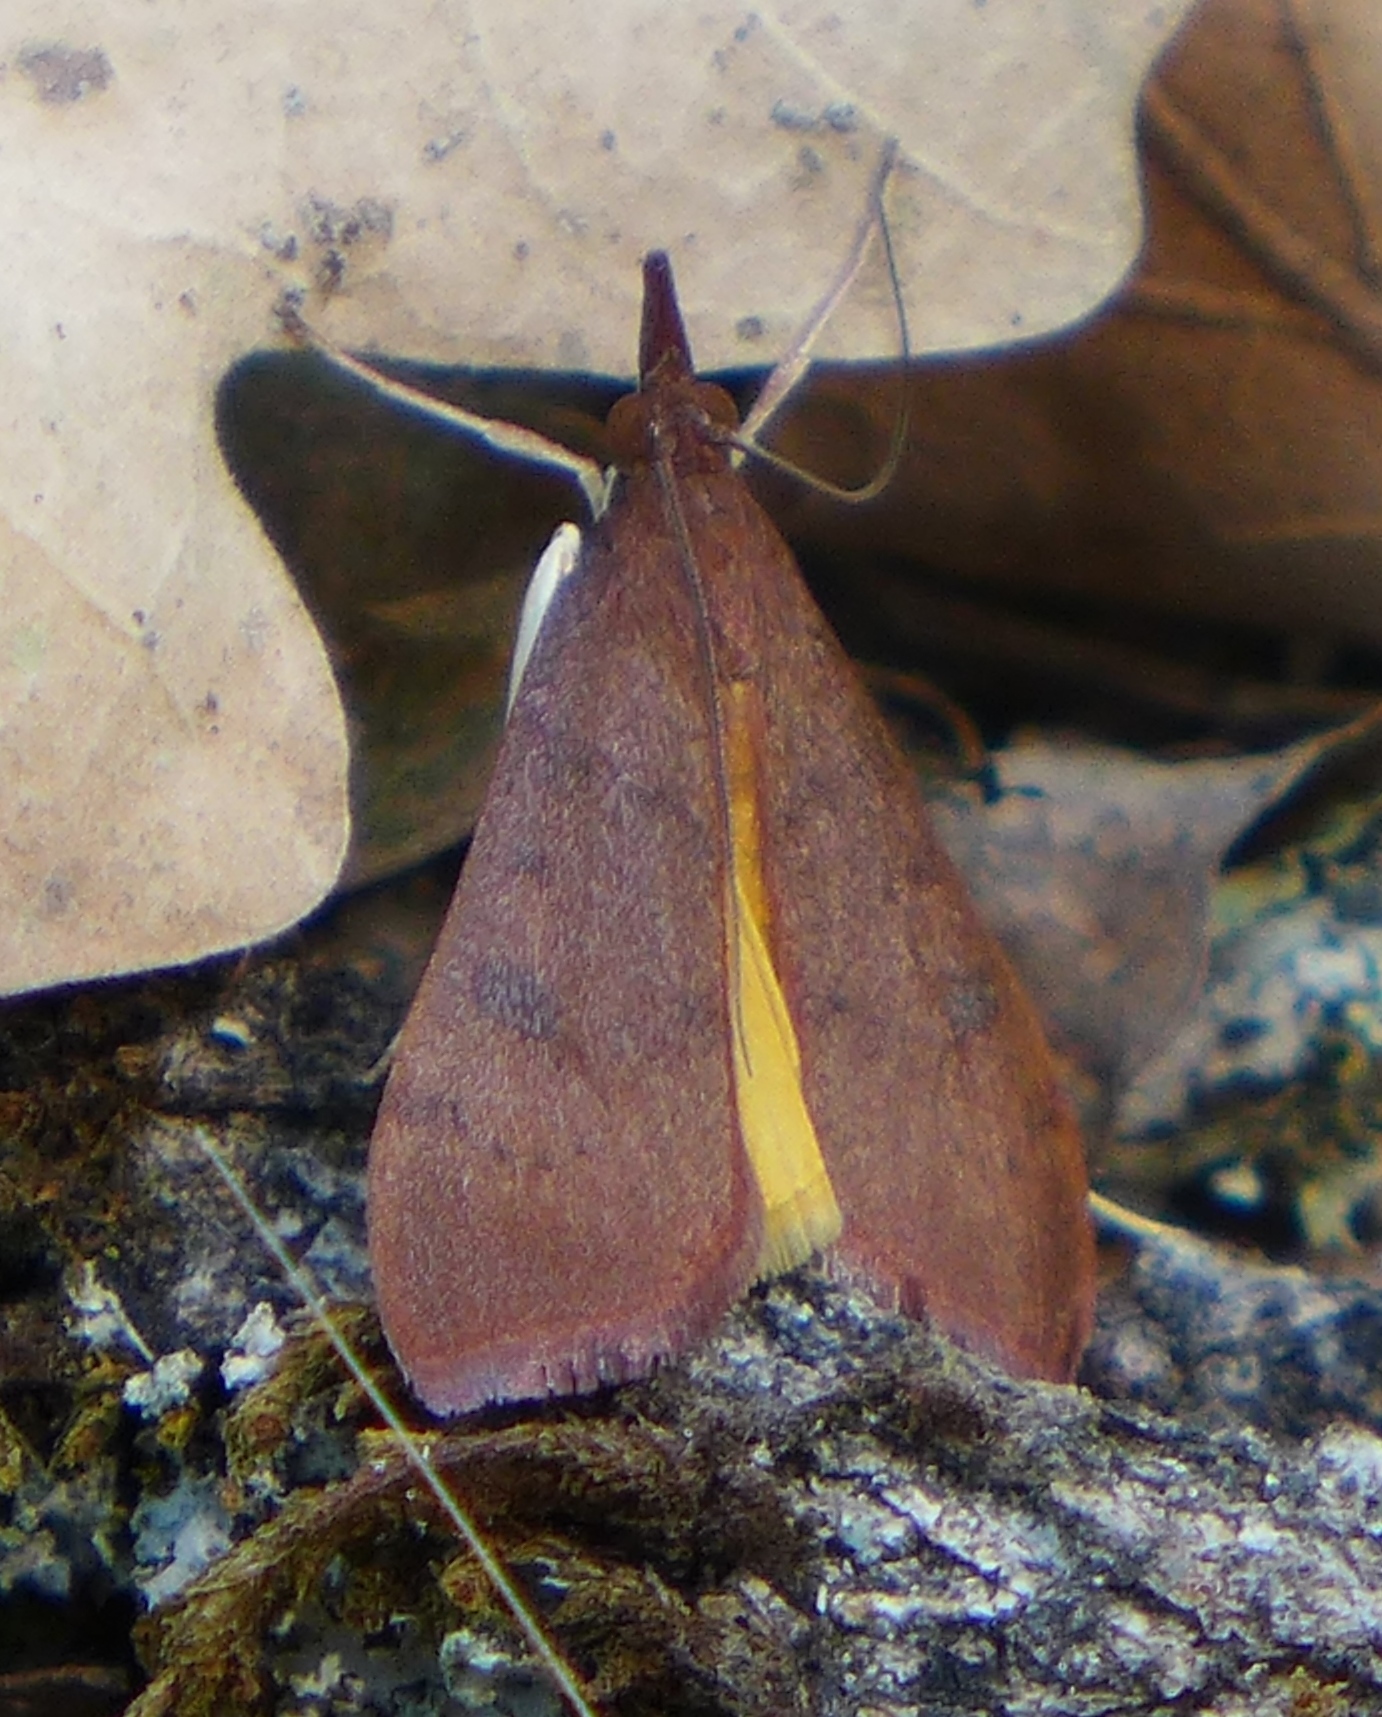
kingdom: Animalia
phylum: Arthropoda
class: Insecta
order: Lepidoptera
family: Crambidae
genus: Uresiphita
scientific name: Uresiphita reversalis
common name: Genista broom moth
